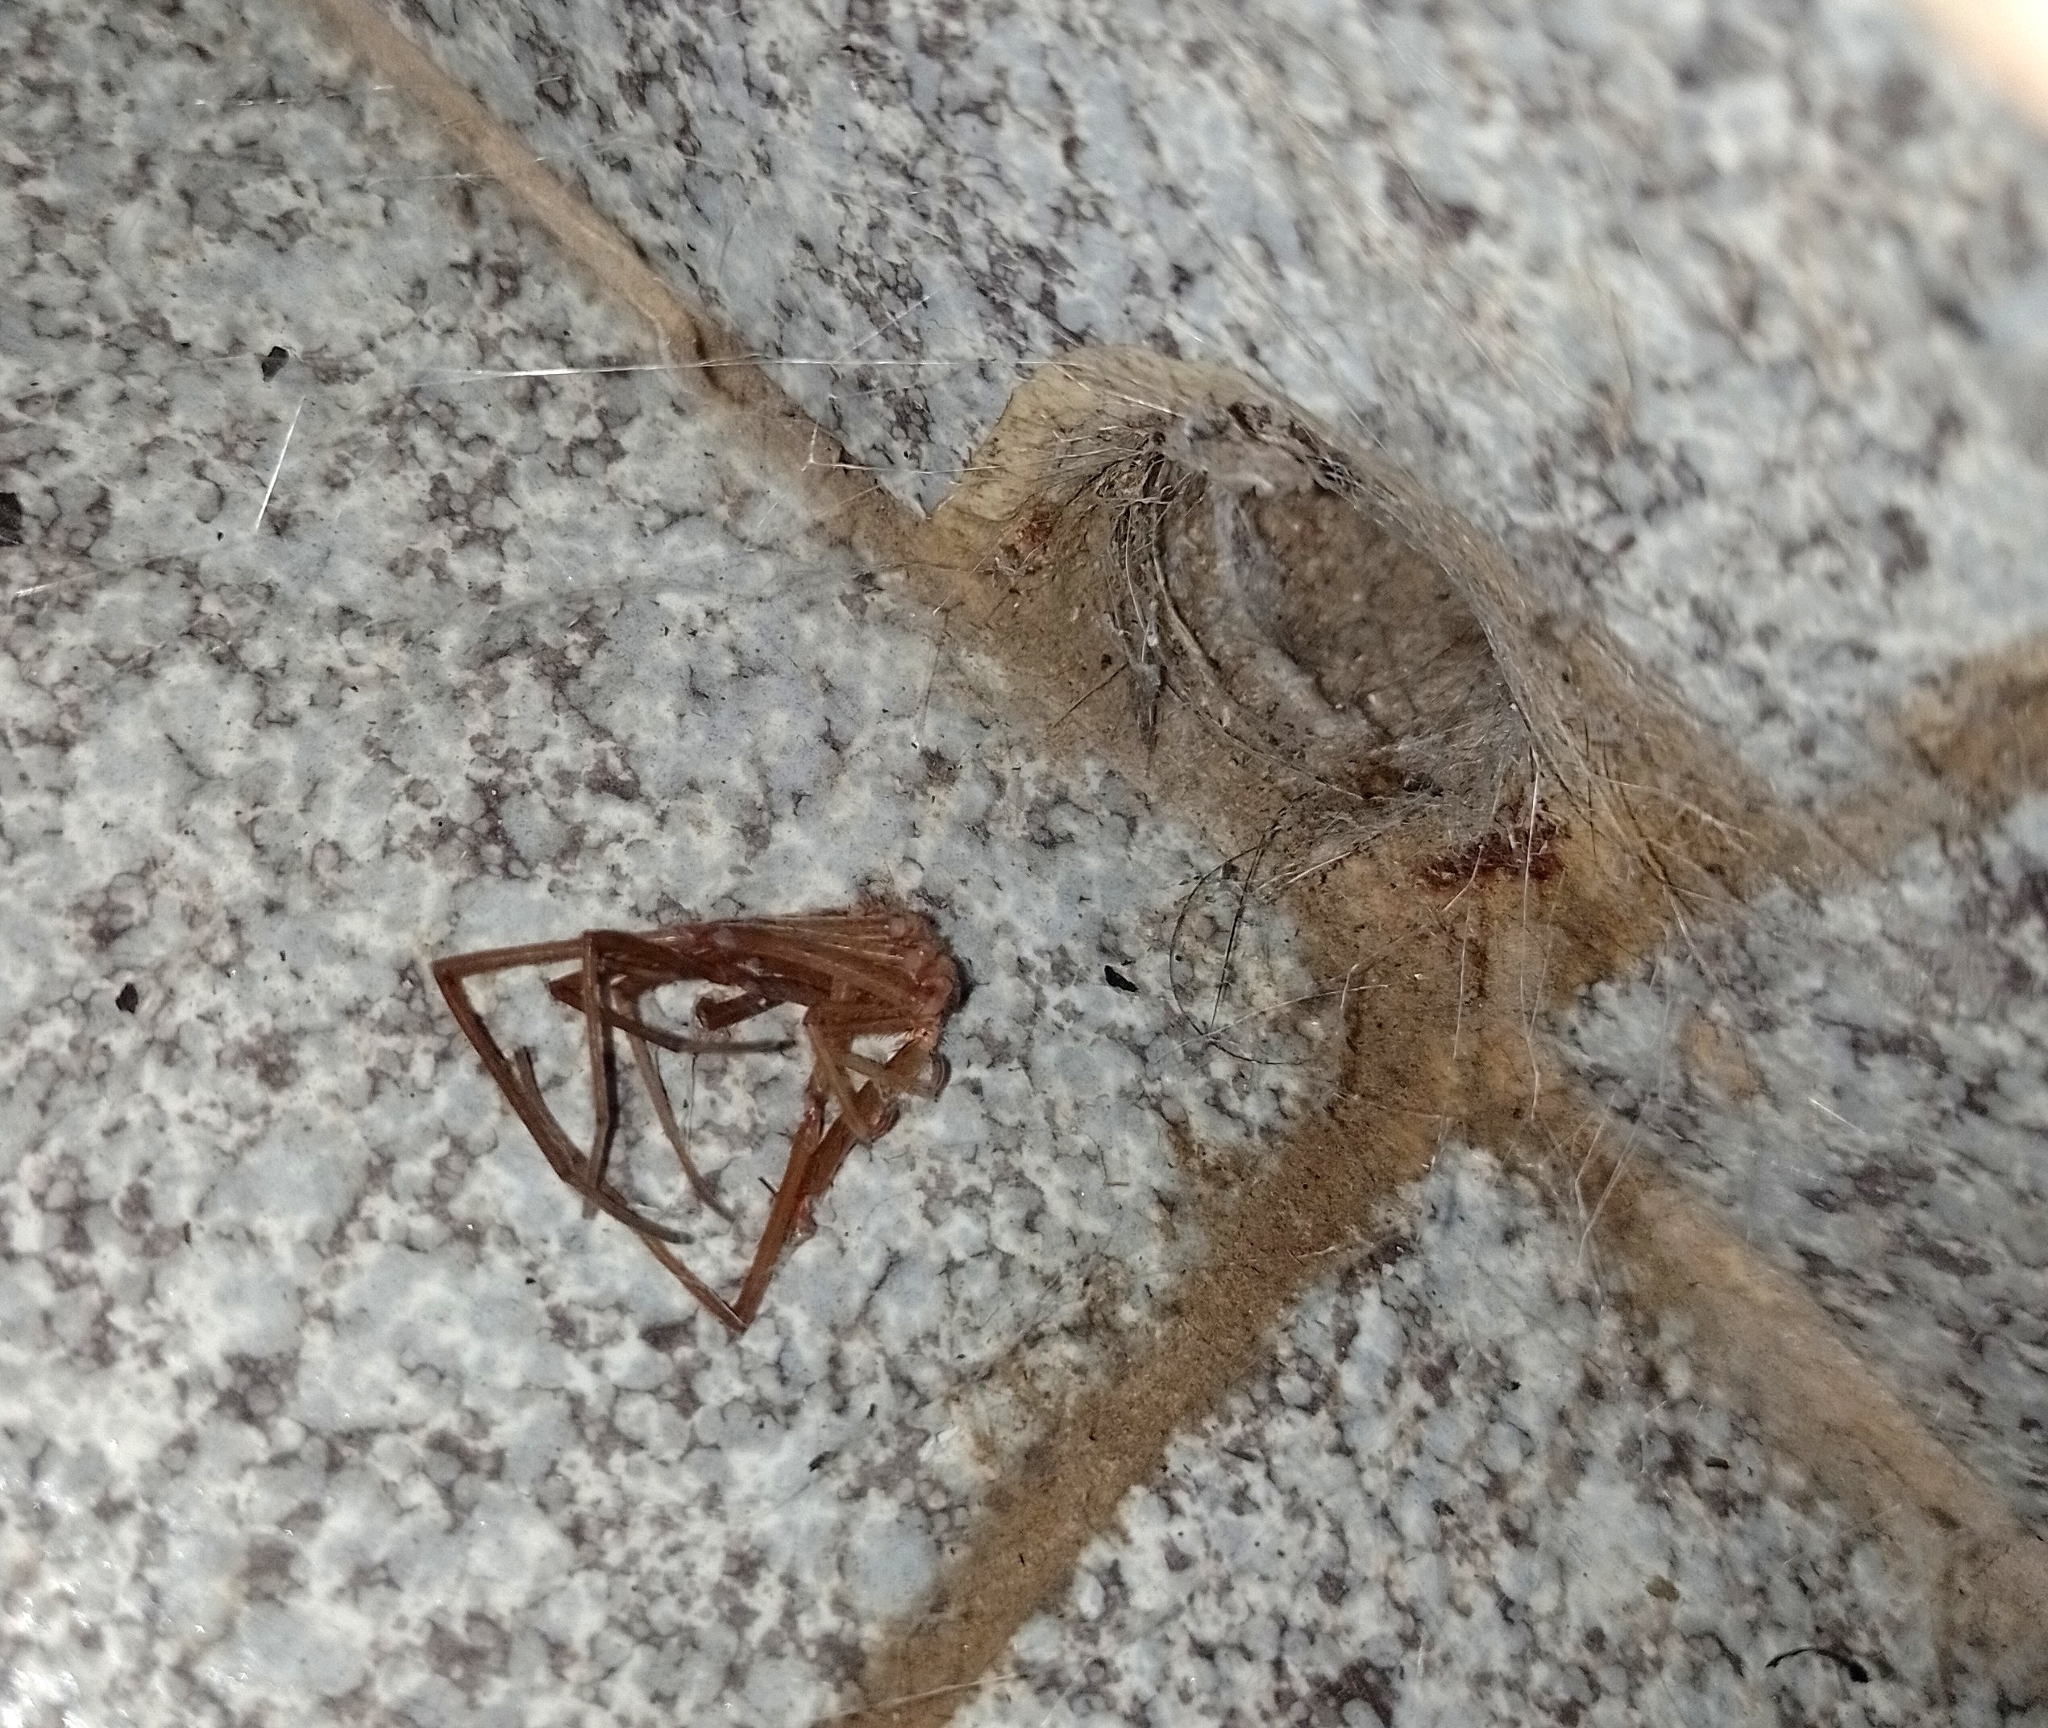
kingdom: Animalia
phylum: Arthropoda
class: Arachnida
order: Araneae
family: Filistatidae
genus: Kukulcania
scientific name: Kukulcania hibernalis
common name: Crevice weaver
